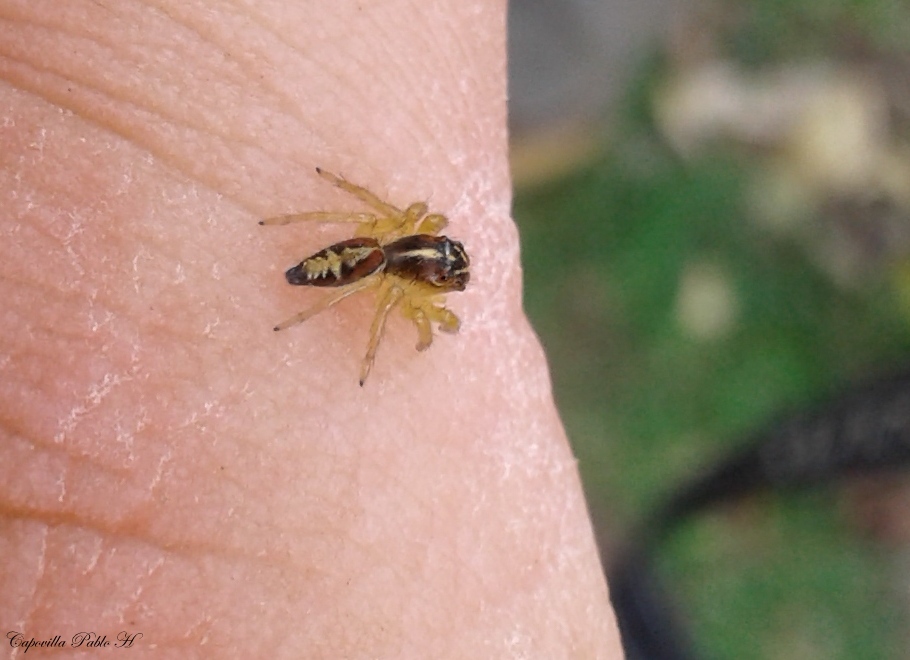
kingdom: Animalia
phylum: Arthropoda
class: Arachnida
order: Araneae
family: Salticidae
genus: Frigga
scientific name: Frigga quintensis
